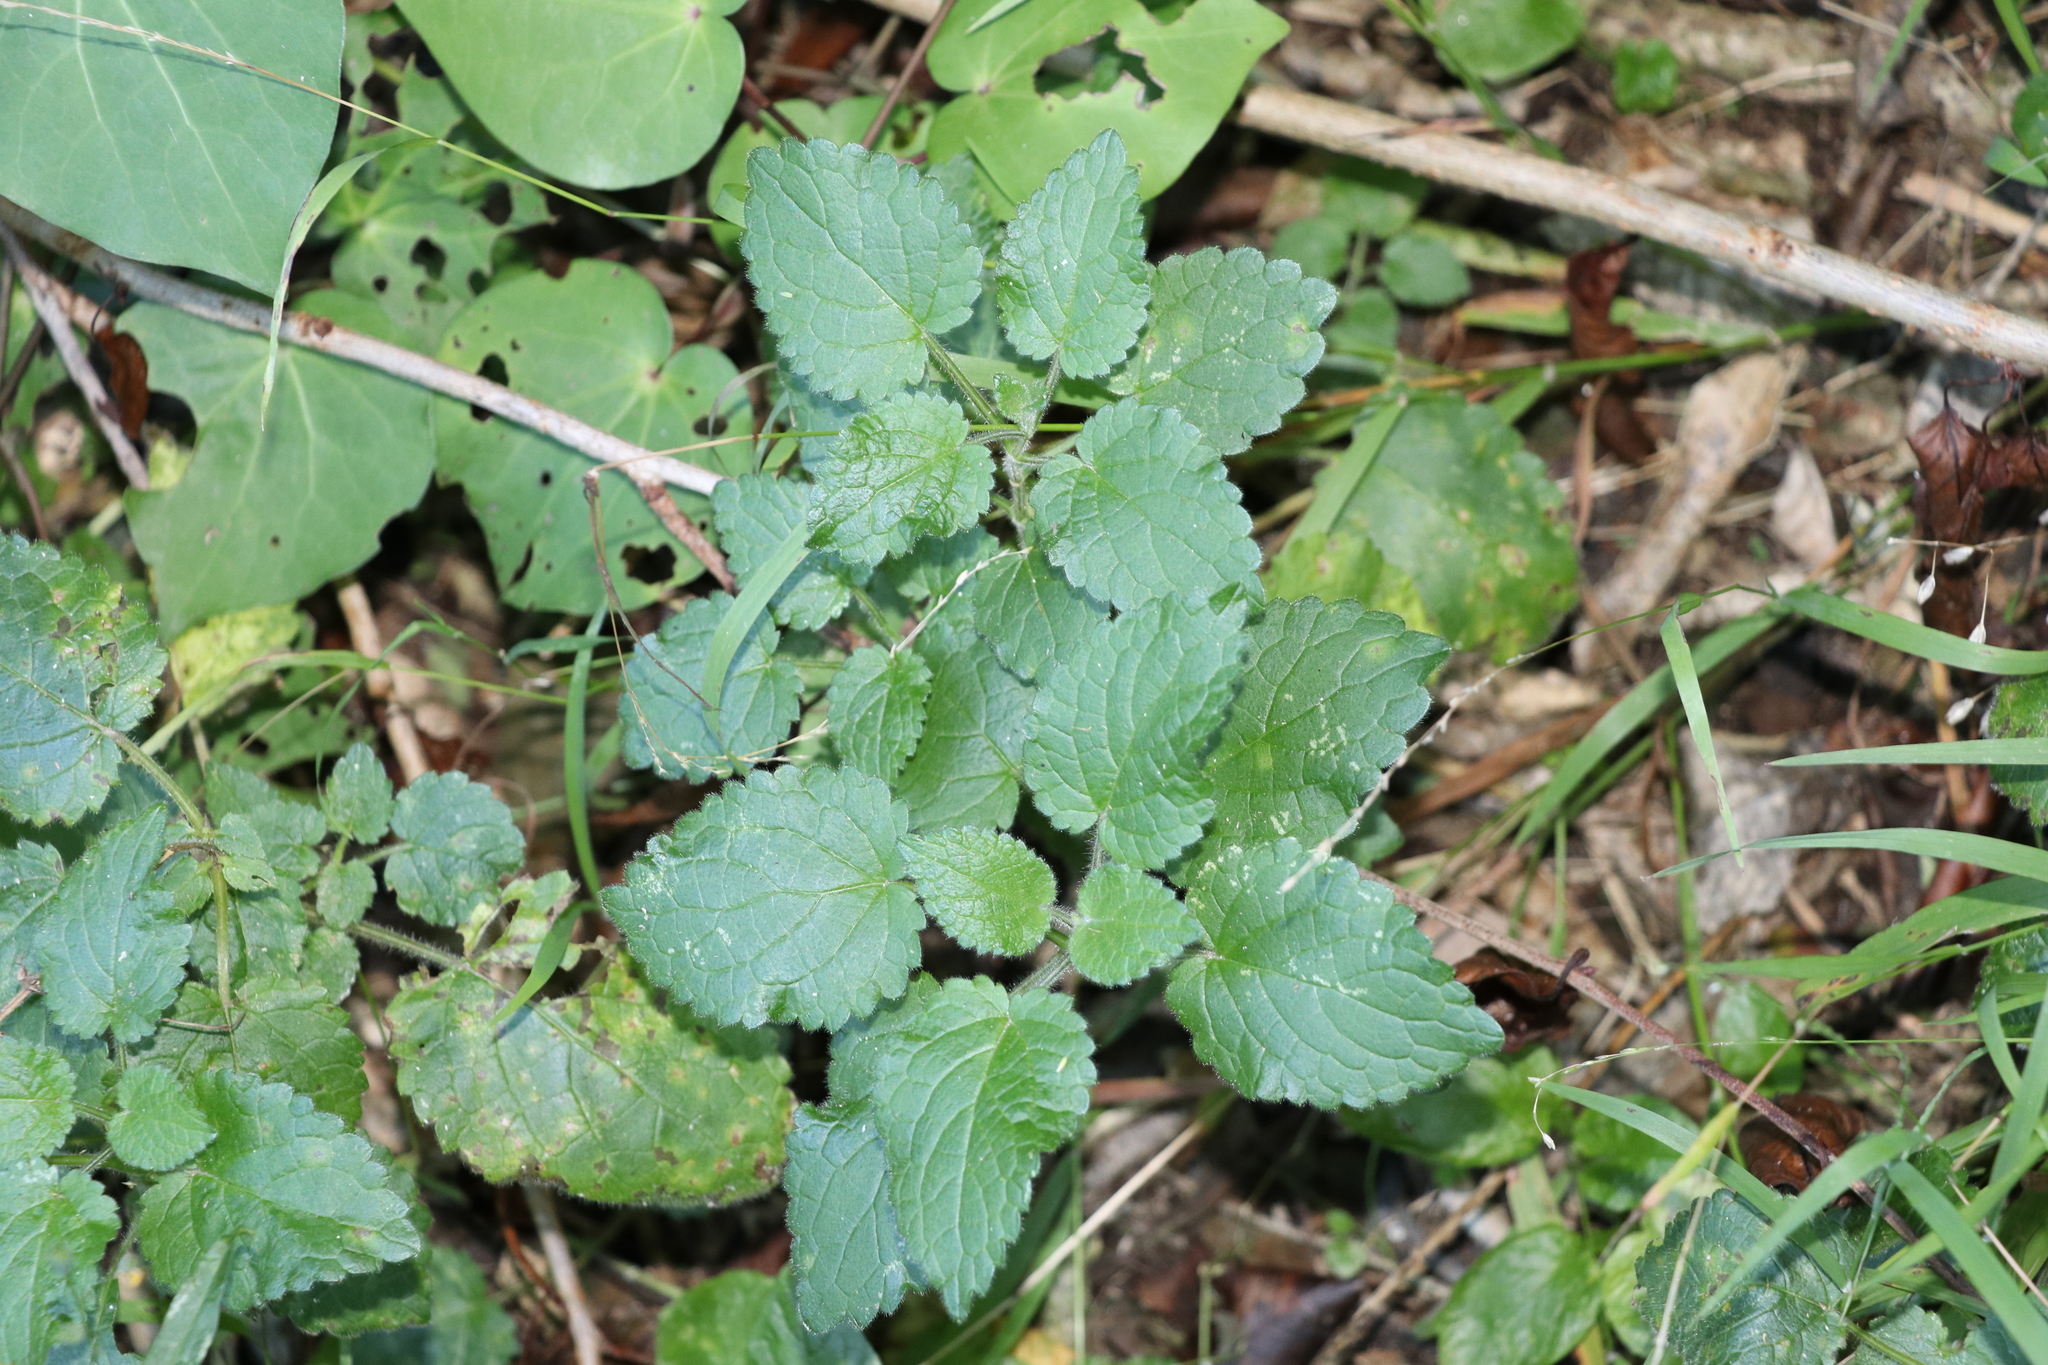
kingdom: Plantae
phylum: Tracheophyta
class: Magnoliopsida
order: Lamiales
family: Lamiaceae
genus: Stachys
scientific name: Stachys sylvatica
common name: Hedge woundwort
